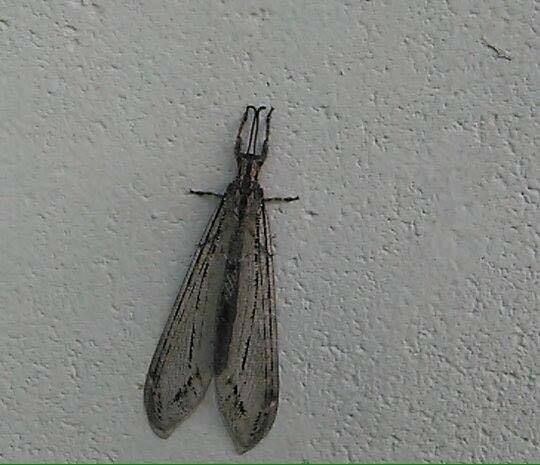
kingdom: Animalia
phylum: Arthropoda
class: Insecta
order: Neuroptera
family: Myrmeleontidae
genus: Vella
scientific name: Vella americana
